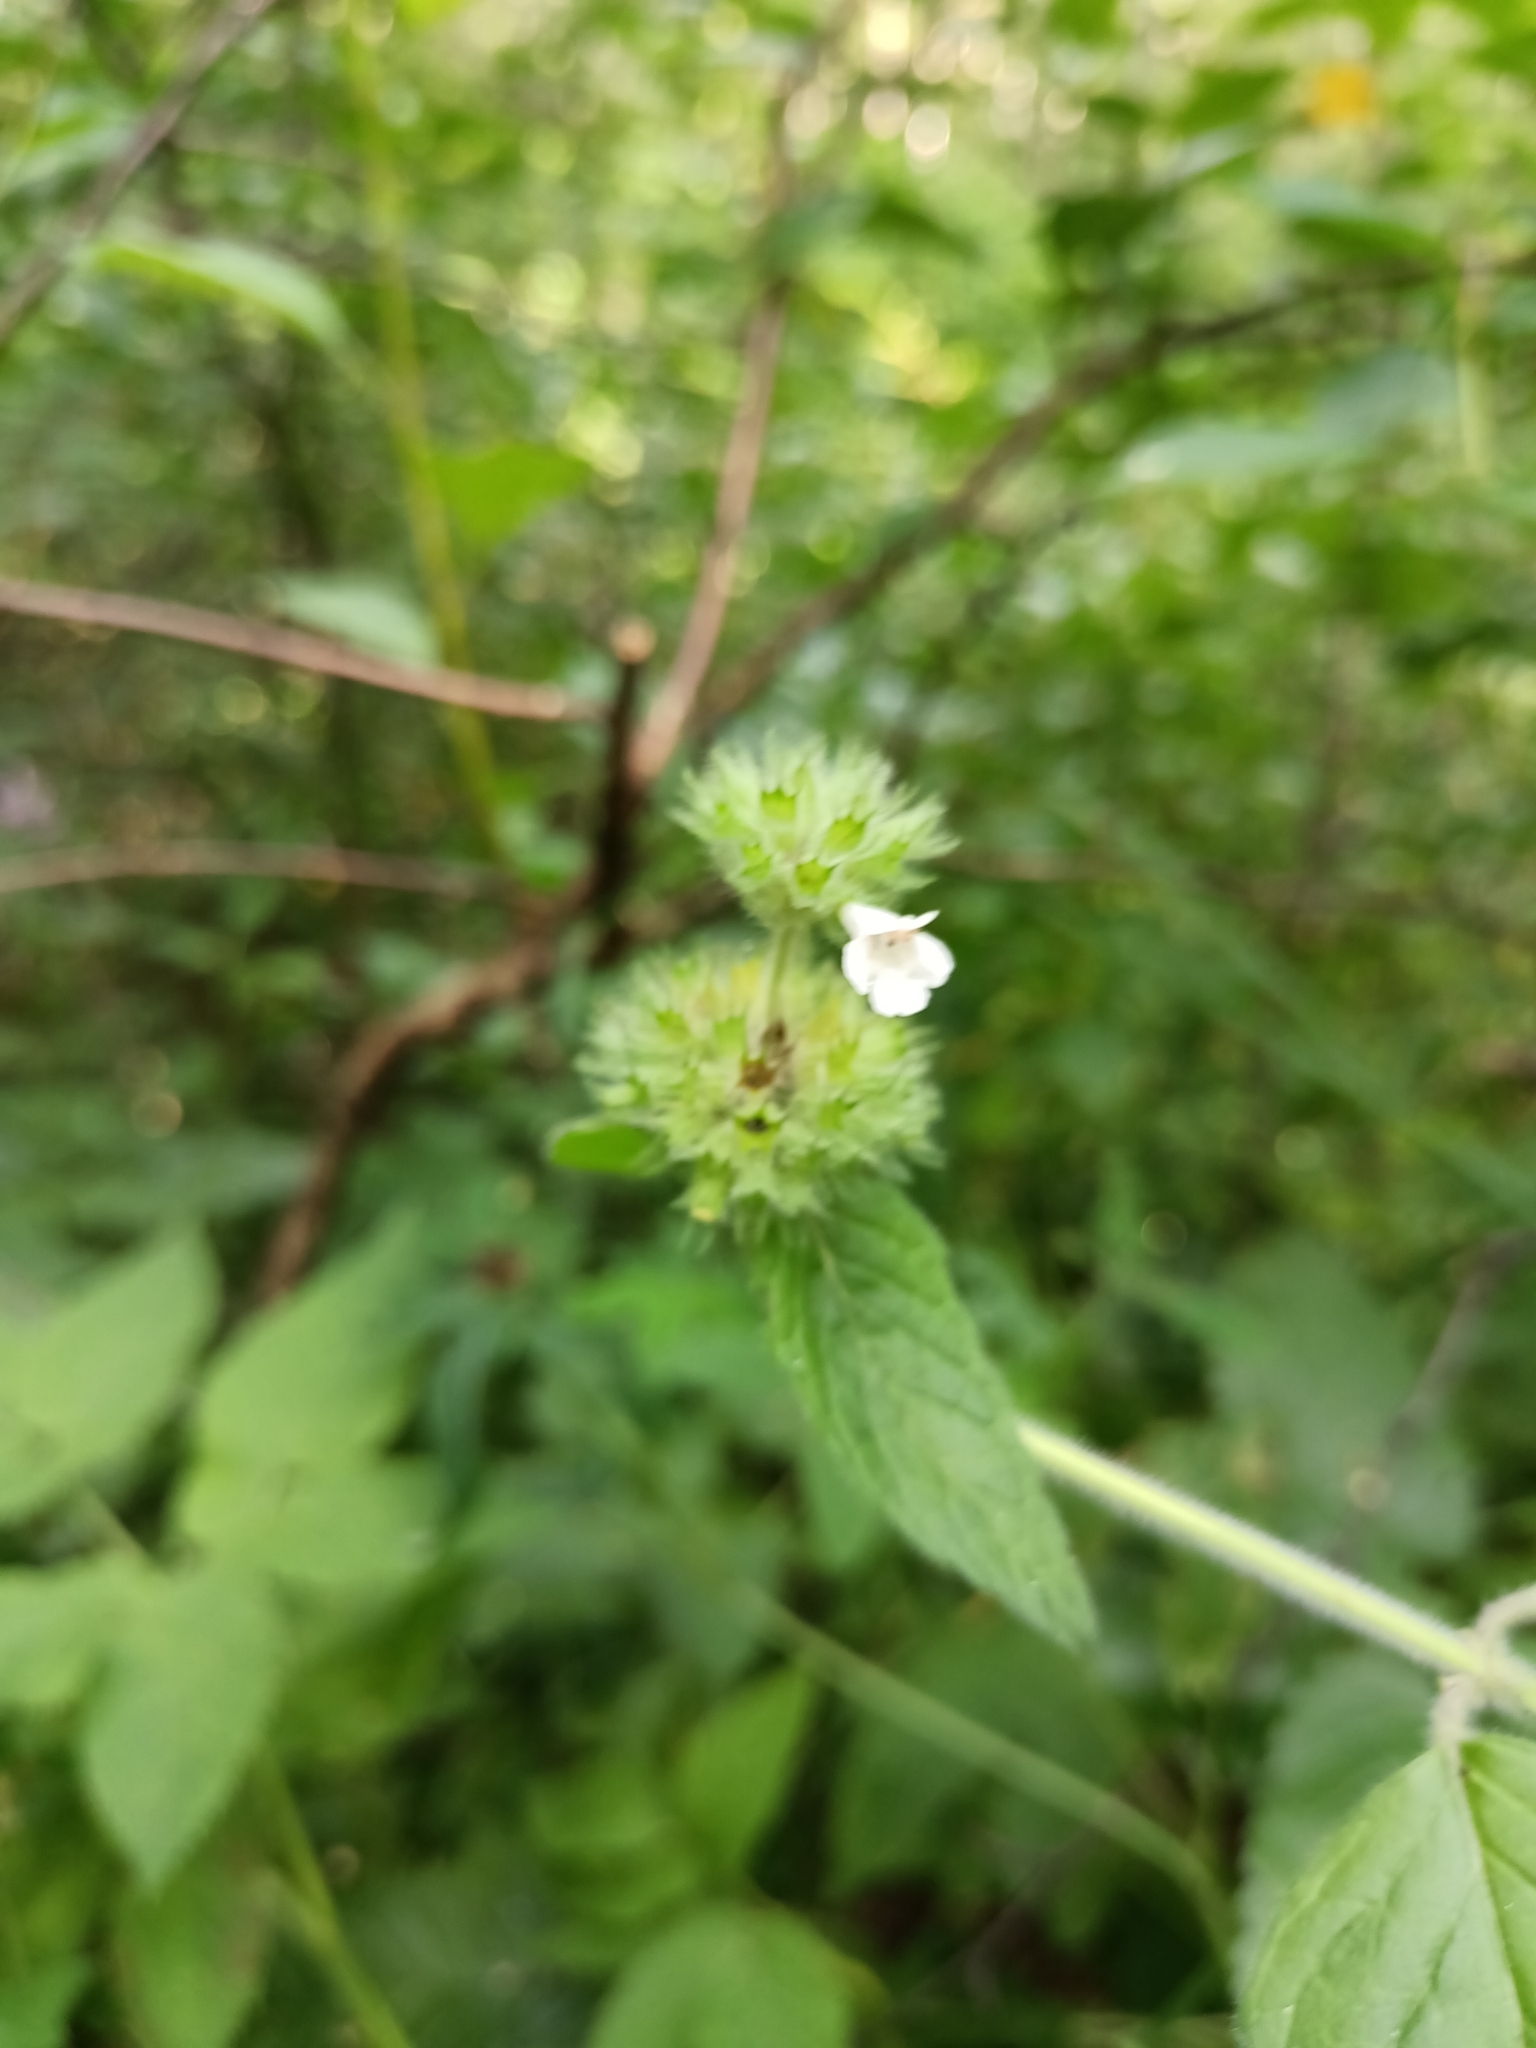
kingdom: Plantae
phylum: Tracheophyta
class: Magnoliopsida
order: Lamiales
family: Lamiaceae
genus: Clinopodium
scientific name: Clinopodium vulgare
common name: Wild basil
